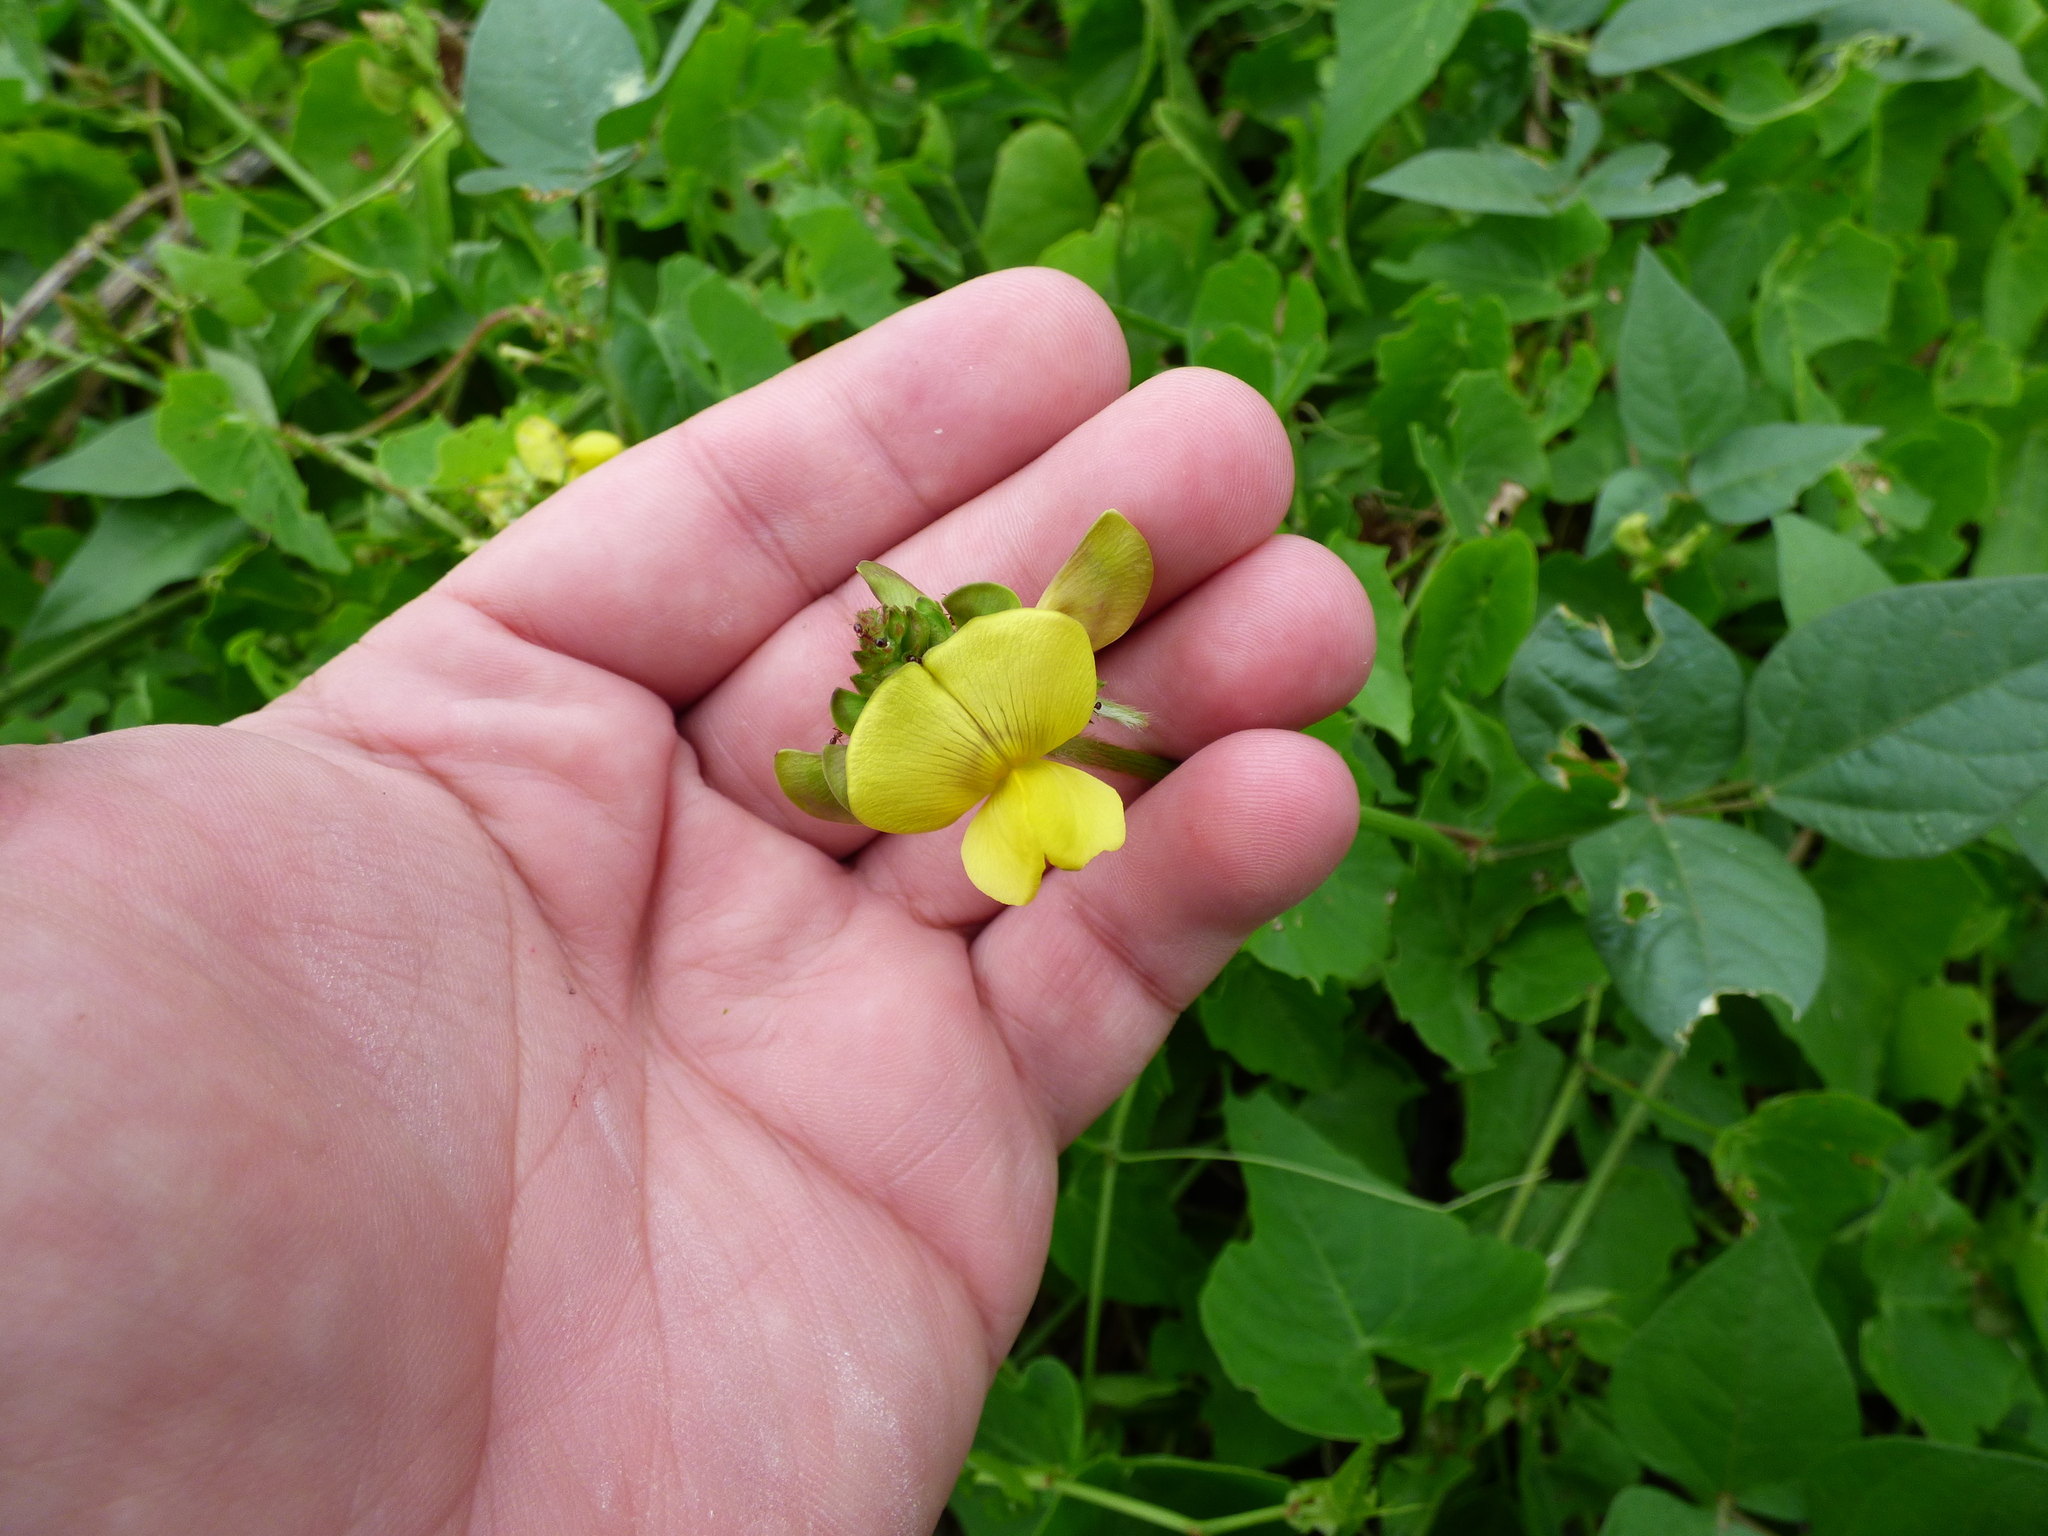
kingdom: Plantae
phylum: Tracheophyta
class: Magnoliopsida
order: Fabales
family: Fabaceae
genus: Vigna
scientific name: Vigna luteola
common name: Hairypod cowpea
